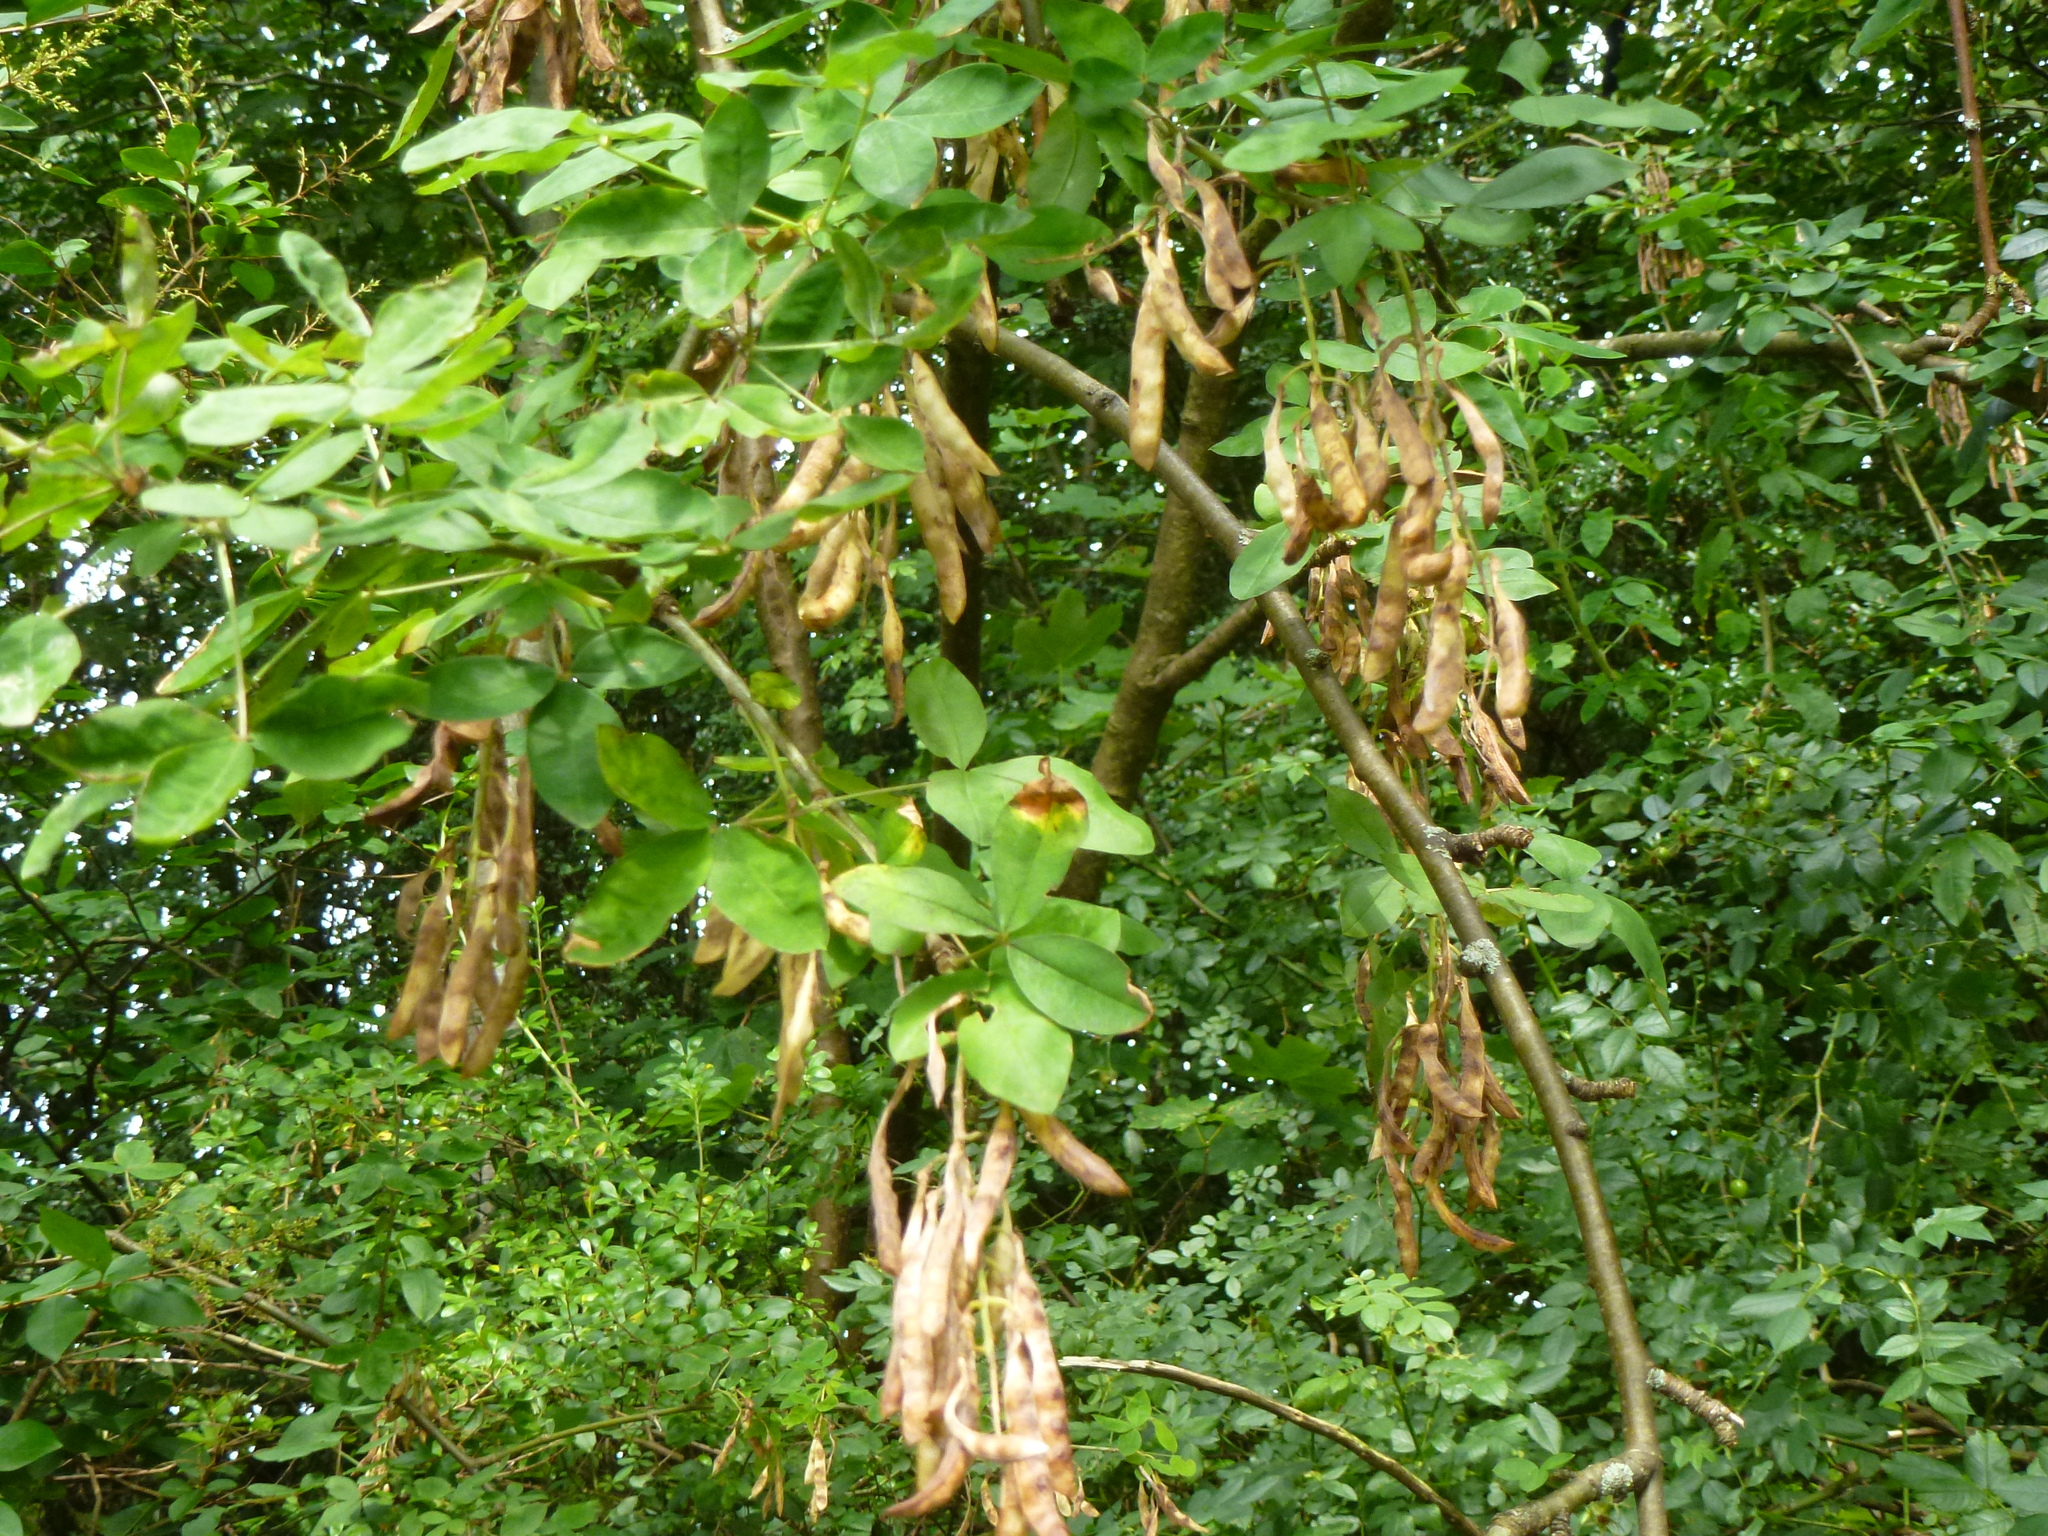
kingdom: Plantae
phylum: Tracheophyta
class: Magnoliopsida
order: Fabales
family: Fabaceae
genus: Laburnum
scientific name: Laburnum anagyroides
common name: Laburnum
